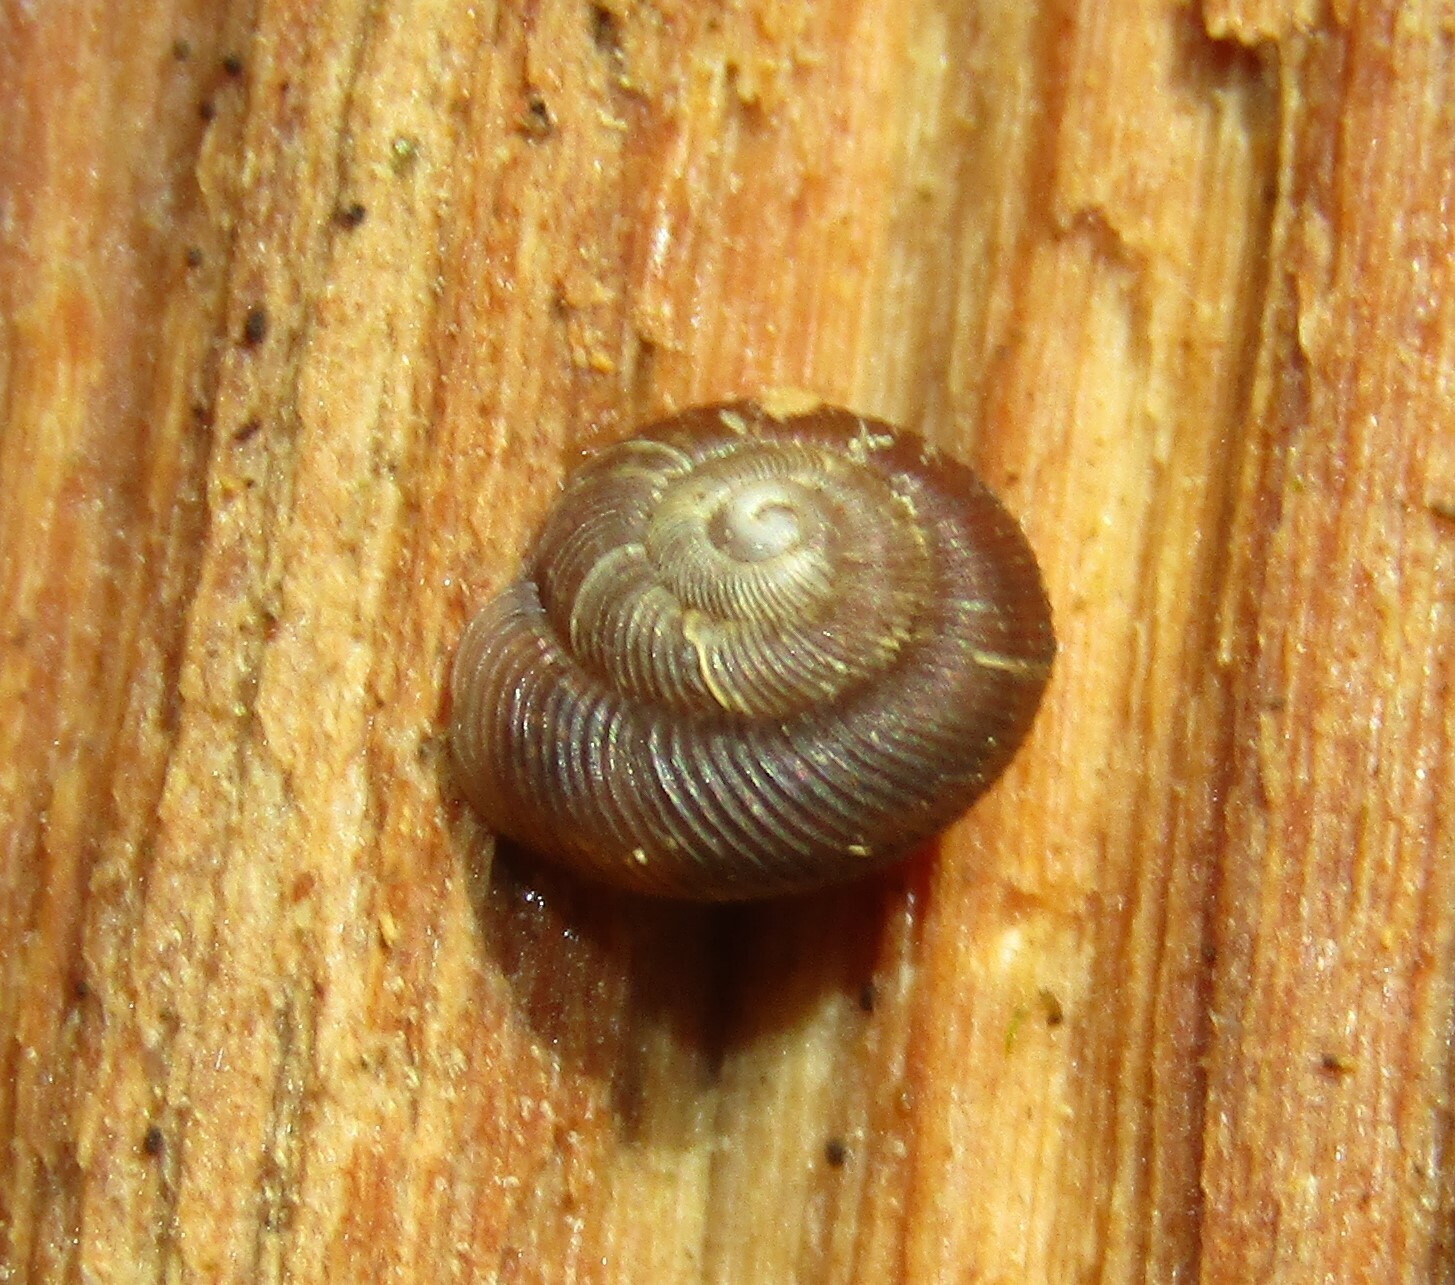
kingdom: Animalia
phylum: Mollusca
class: Gastropoda
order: Stylommatophora
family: Discidae
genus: Discus
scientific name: Discus ruderatus
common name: Brown disc snail
